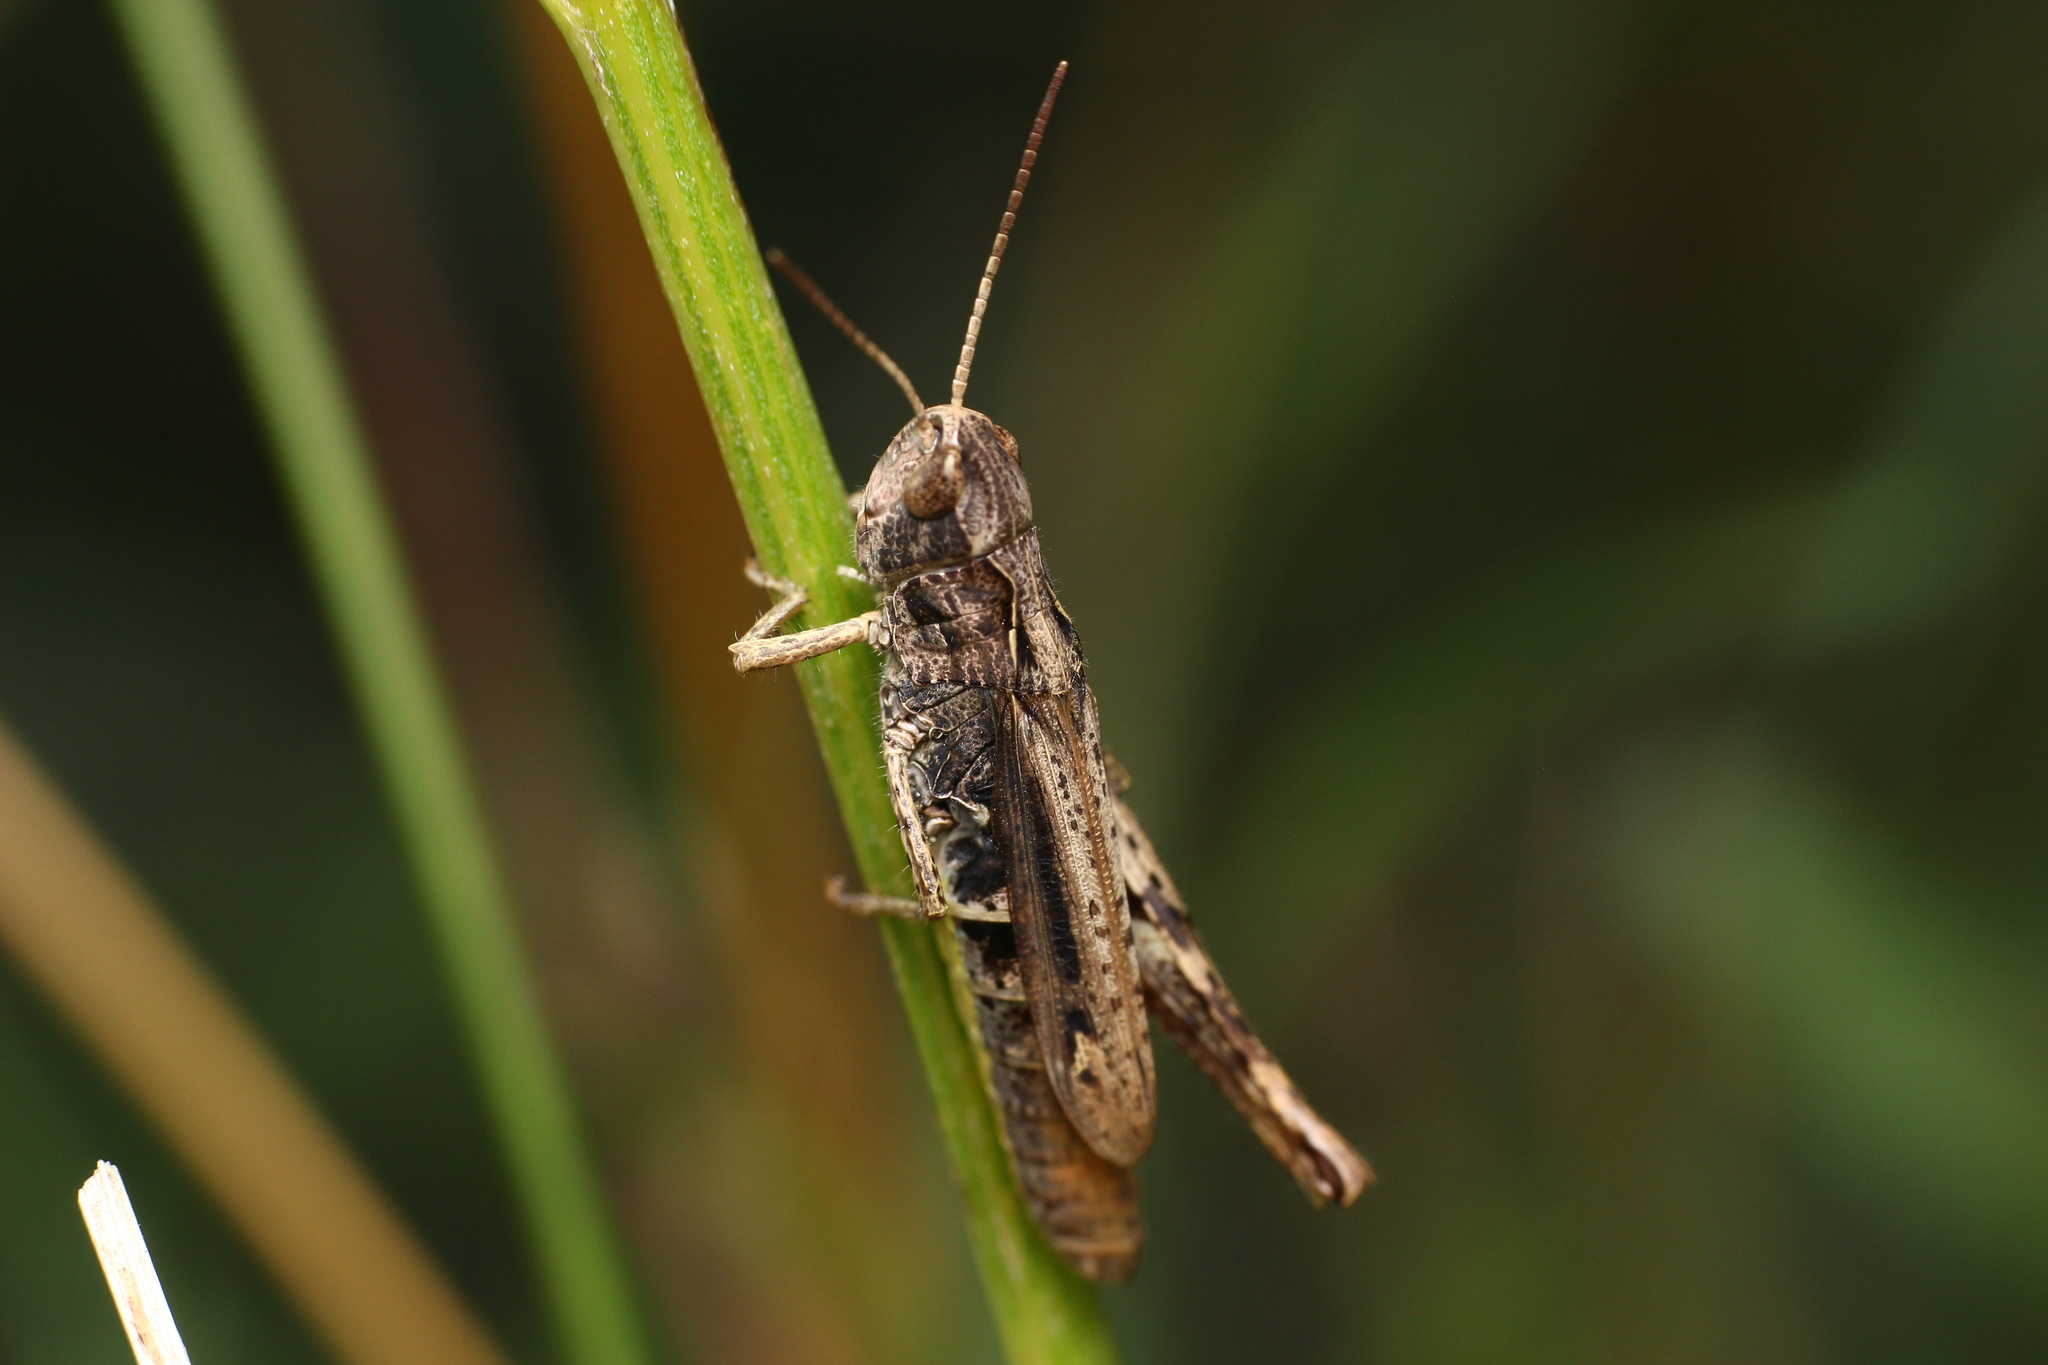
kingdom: Animalia
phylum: Arthropoda
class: Insecta
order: Orthoptera
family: Acrididae
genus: Chorthippus
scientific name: Chorthippus apricarius
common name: Upland field grasshopper
